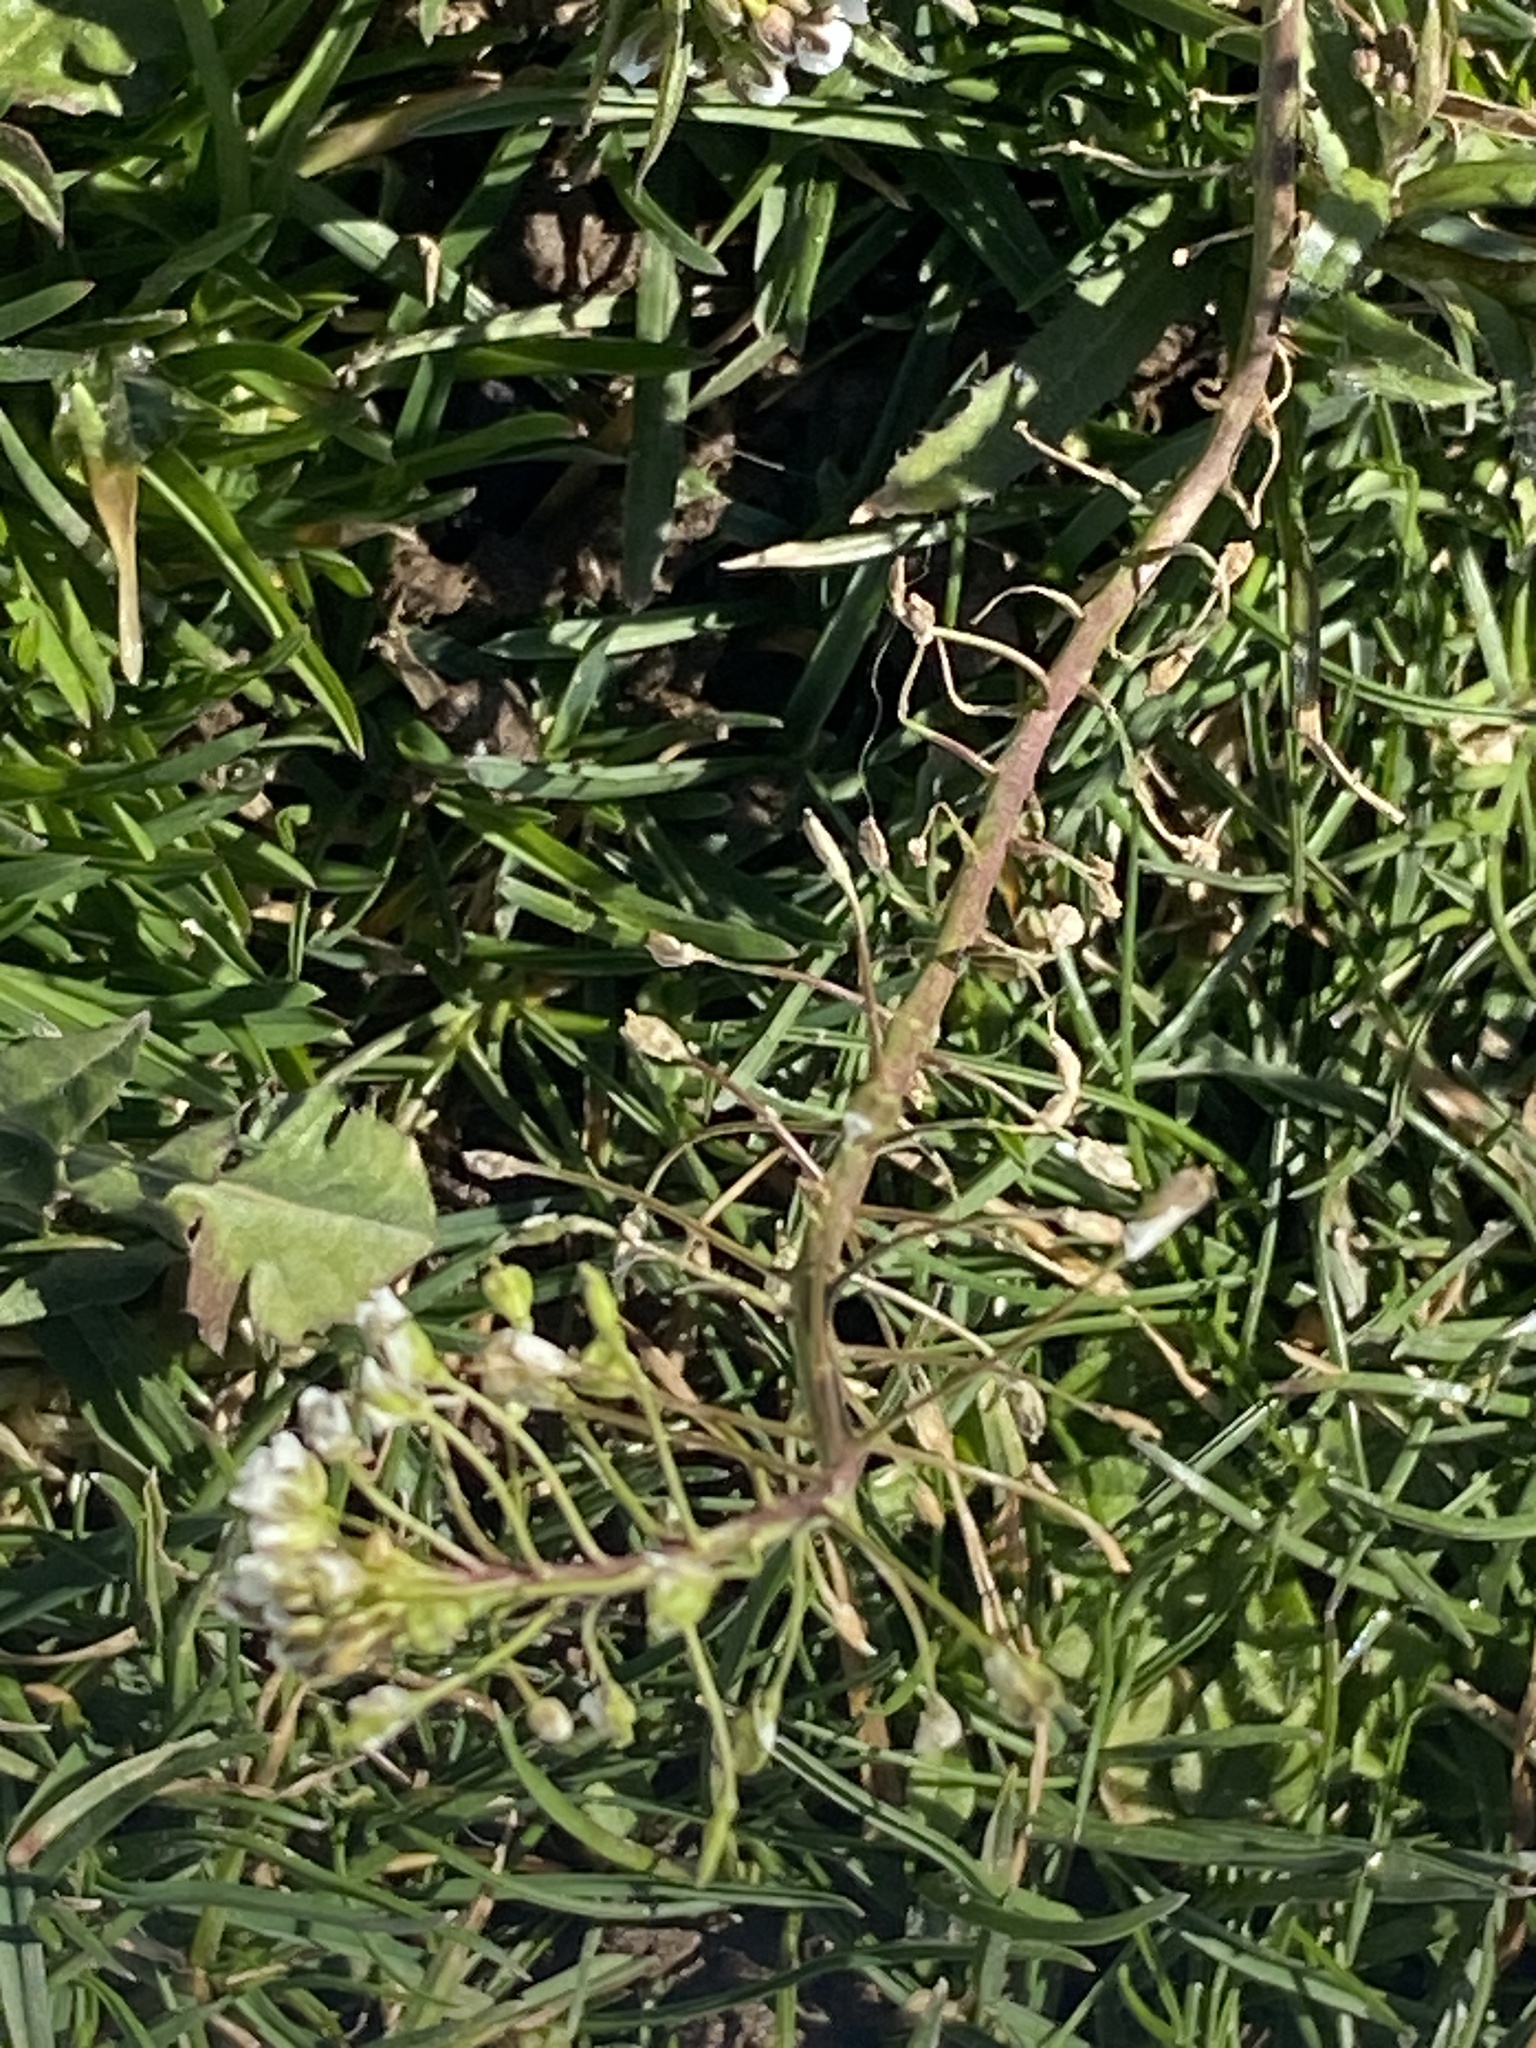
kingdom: Plantae
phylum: Tracheophyta
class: Magnoliopsida
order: Brassicales
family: Brassicaceae
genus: Capsella
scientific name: Capsella bursa-pastoris
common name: Shepherd's purse
